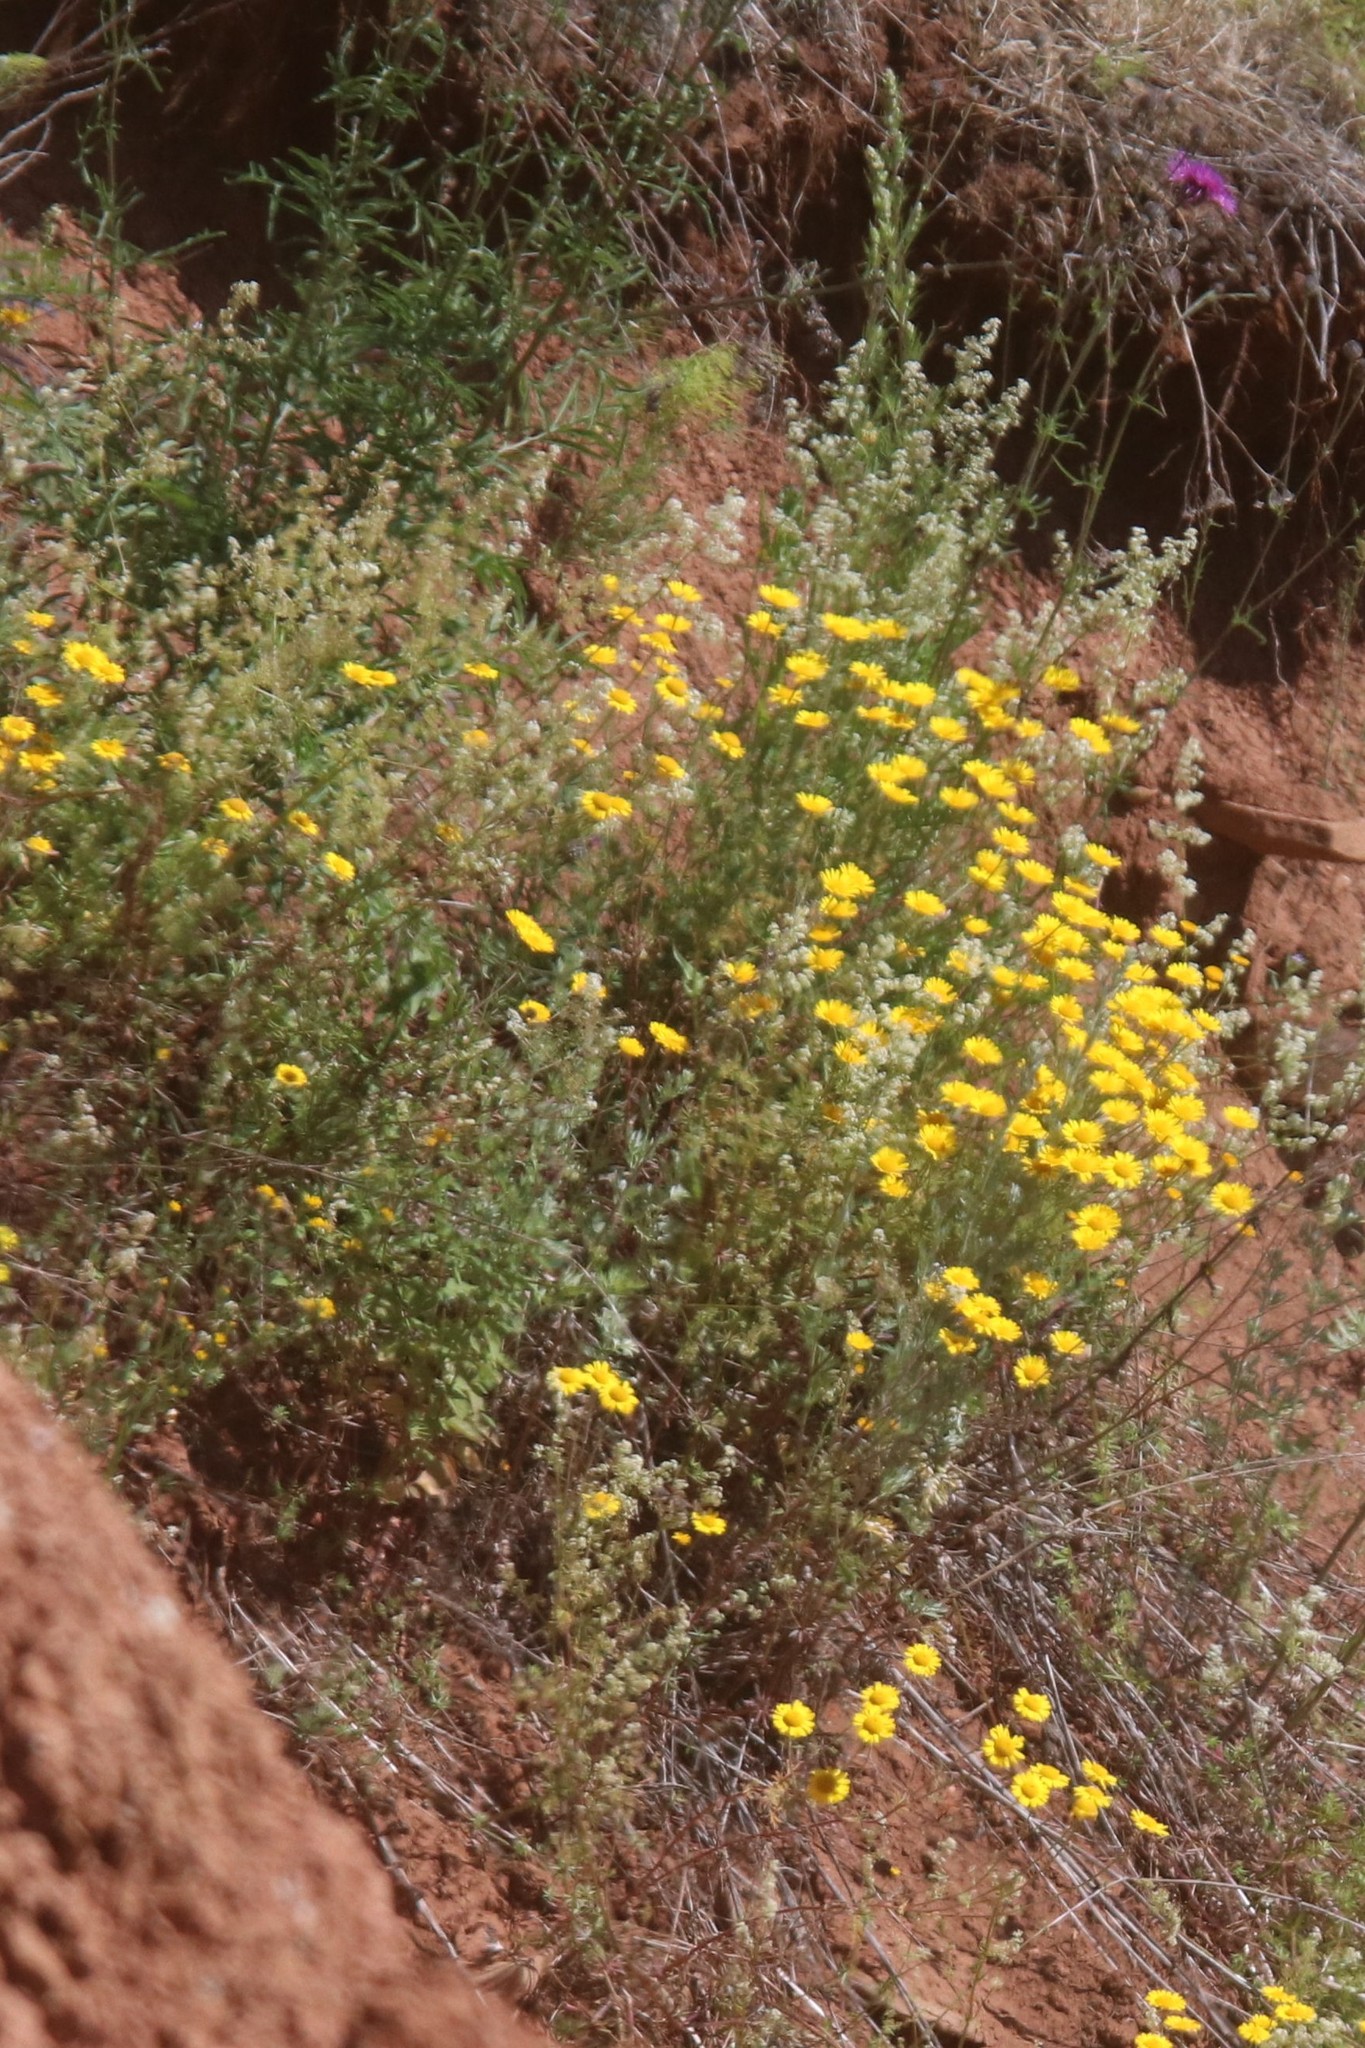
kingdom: Plantae
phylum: Tracheophyta
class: Magnoliopsida
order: Asterales
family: Asteraceae
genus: Cota
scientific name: Cota tinctoria
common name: Golden chamomile
